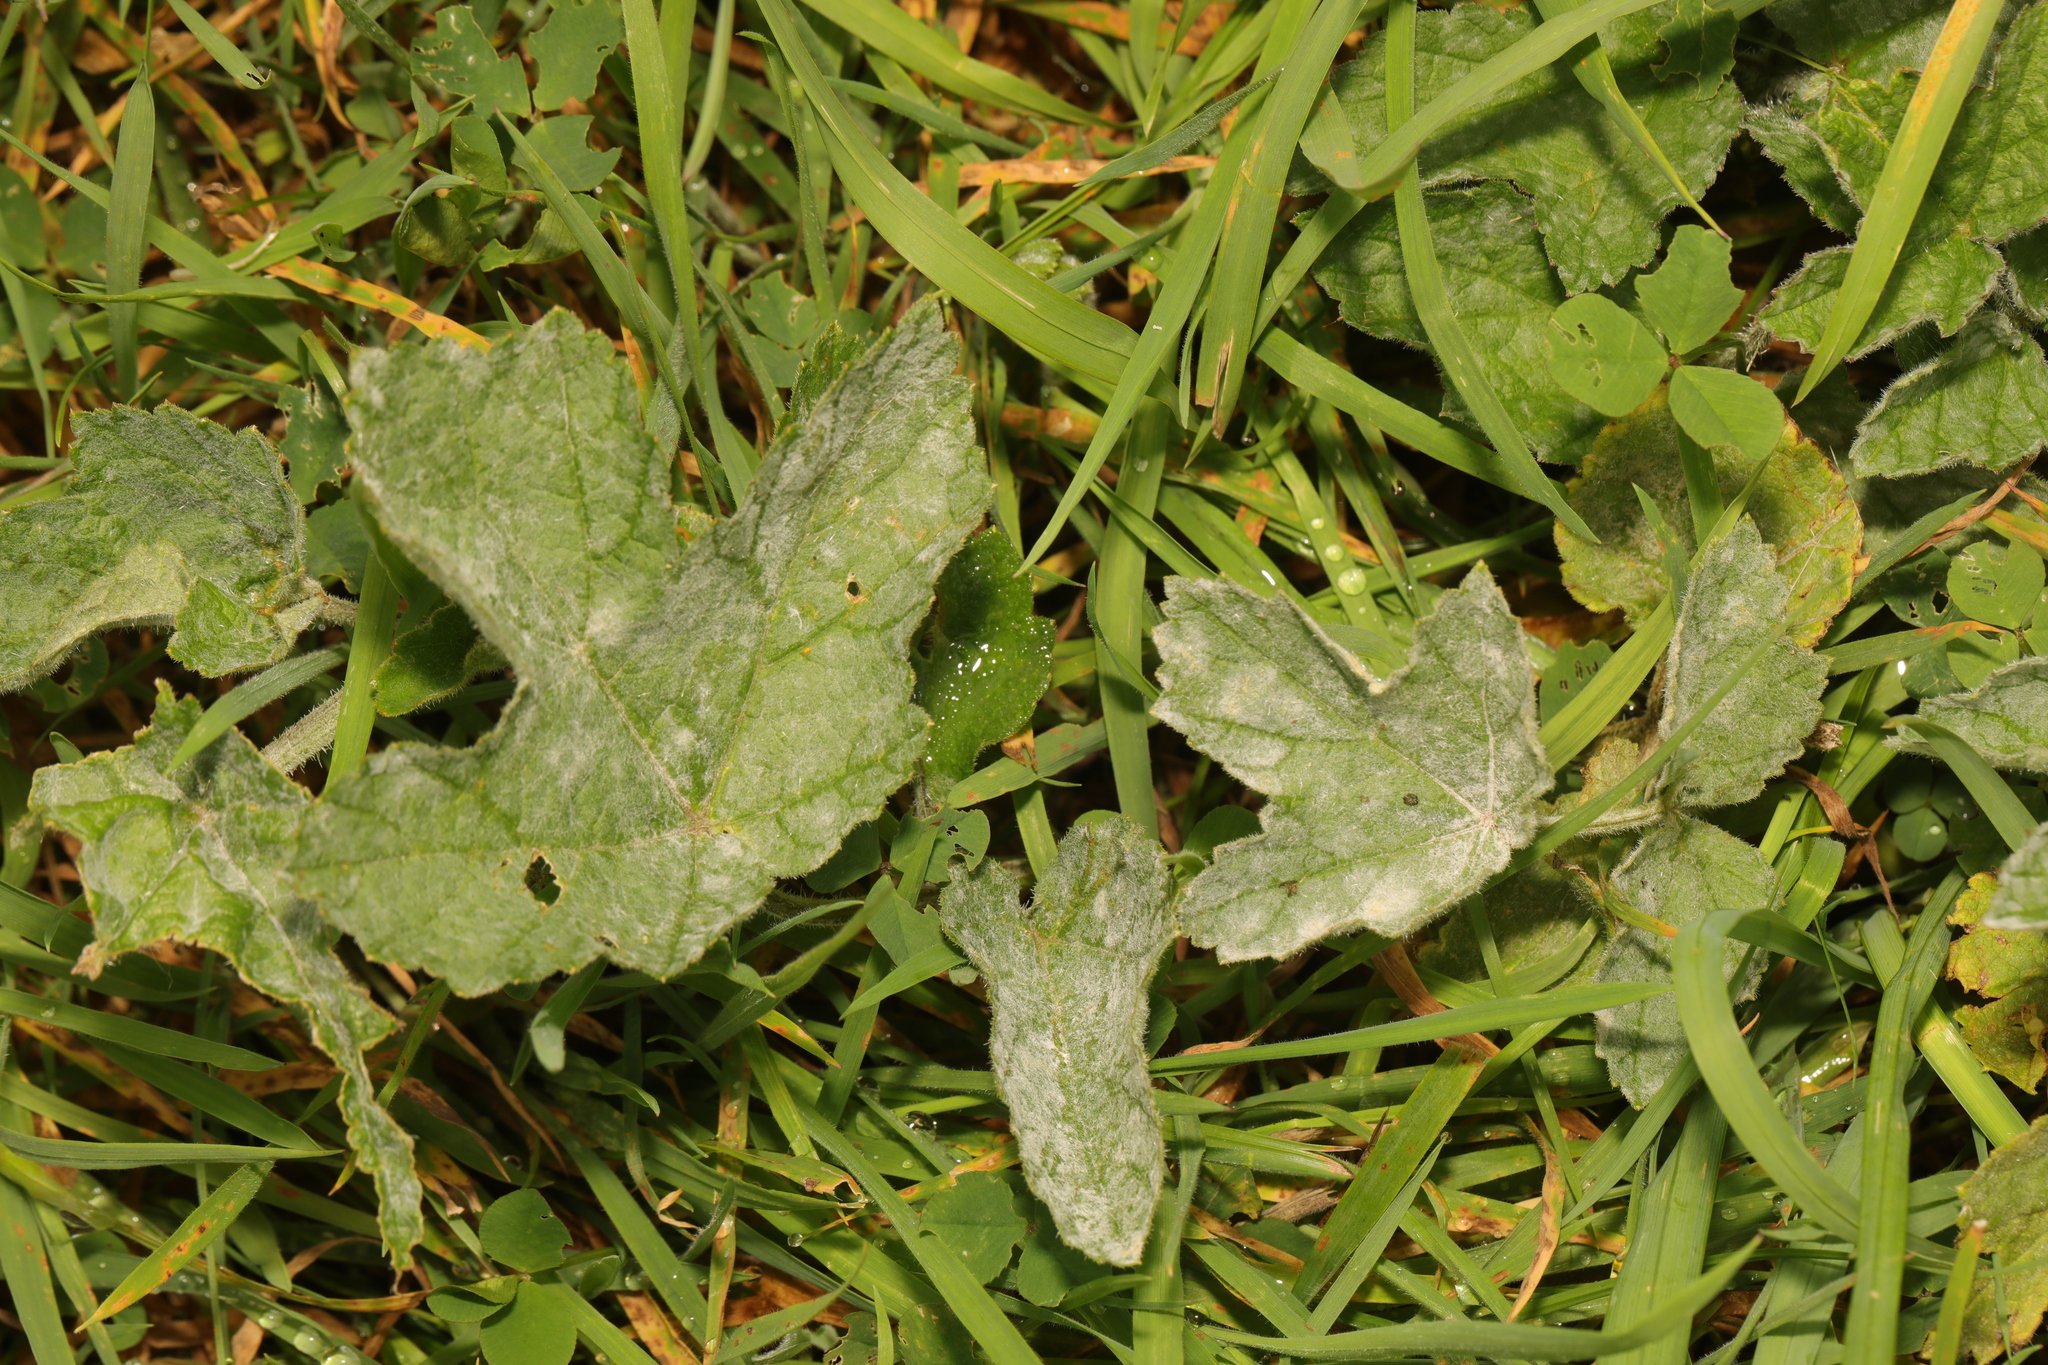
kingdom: Plantae
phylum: Tracheophyta
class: Magnoliopsida
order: Apiales
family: Apiaceae
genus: Heracleum
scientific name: Heracleum sphondylium
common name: Hogweed
